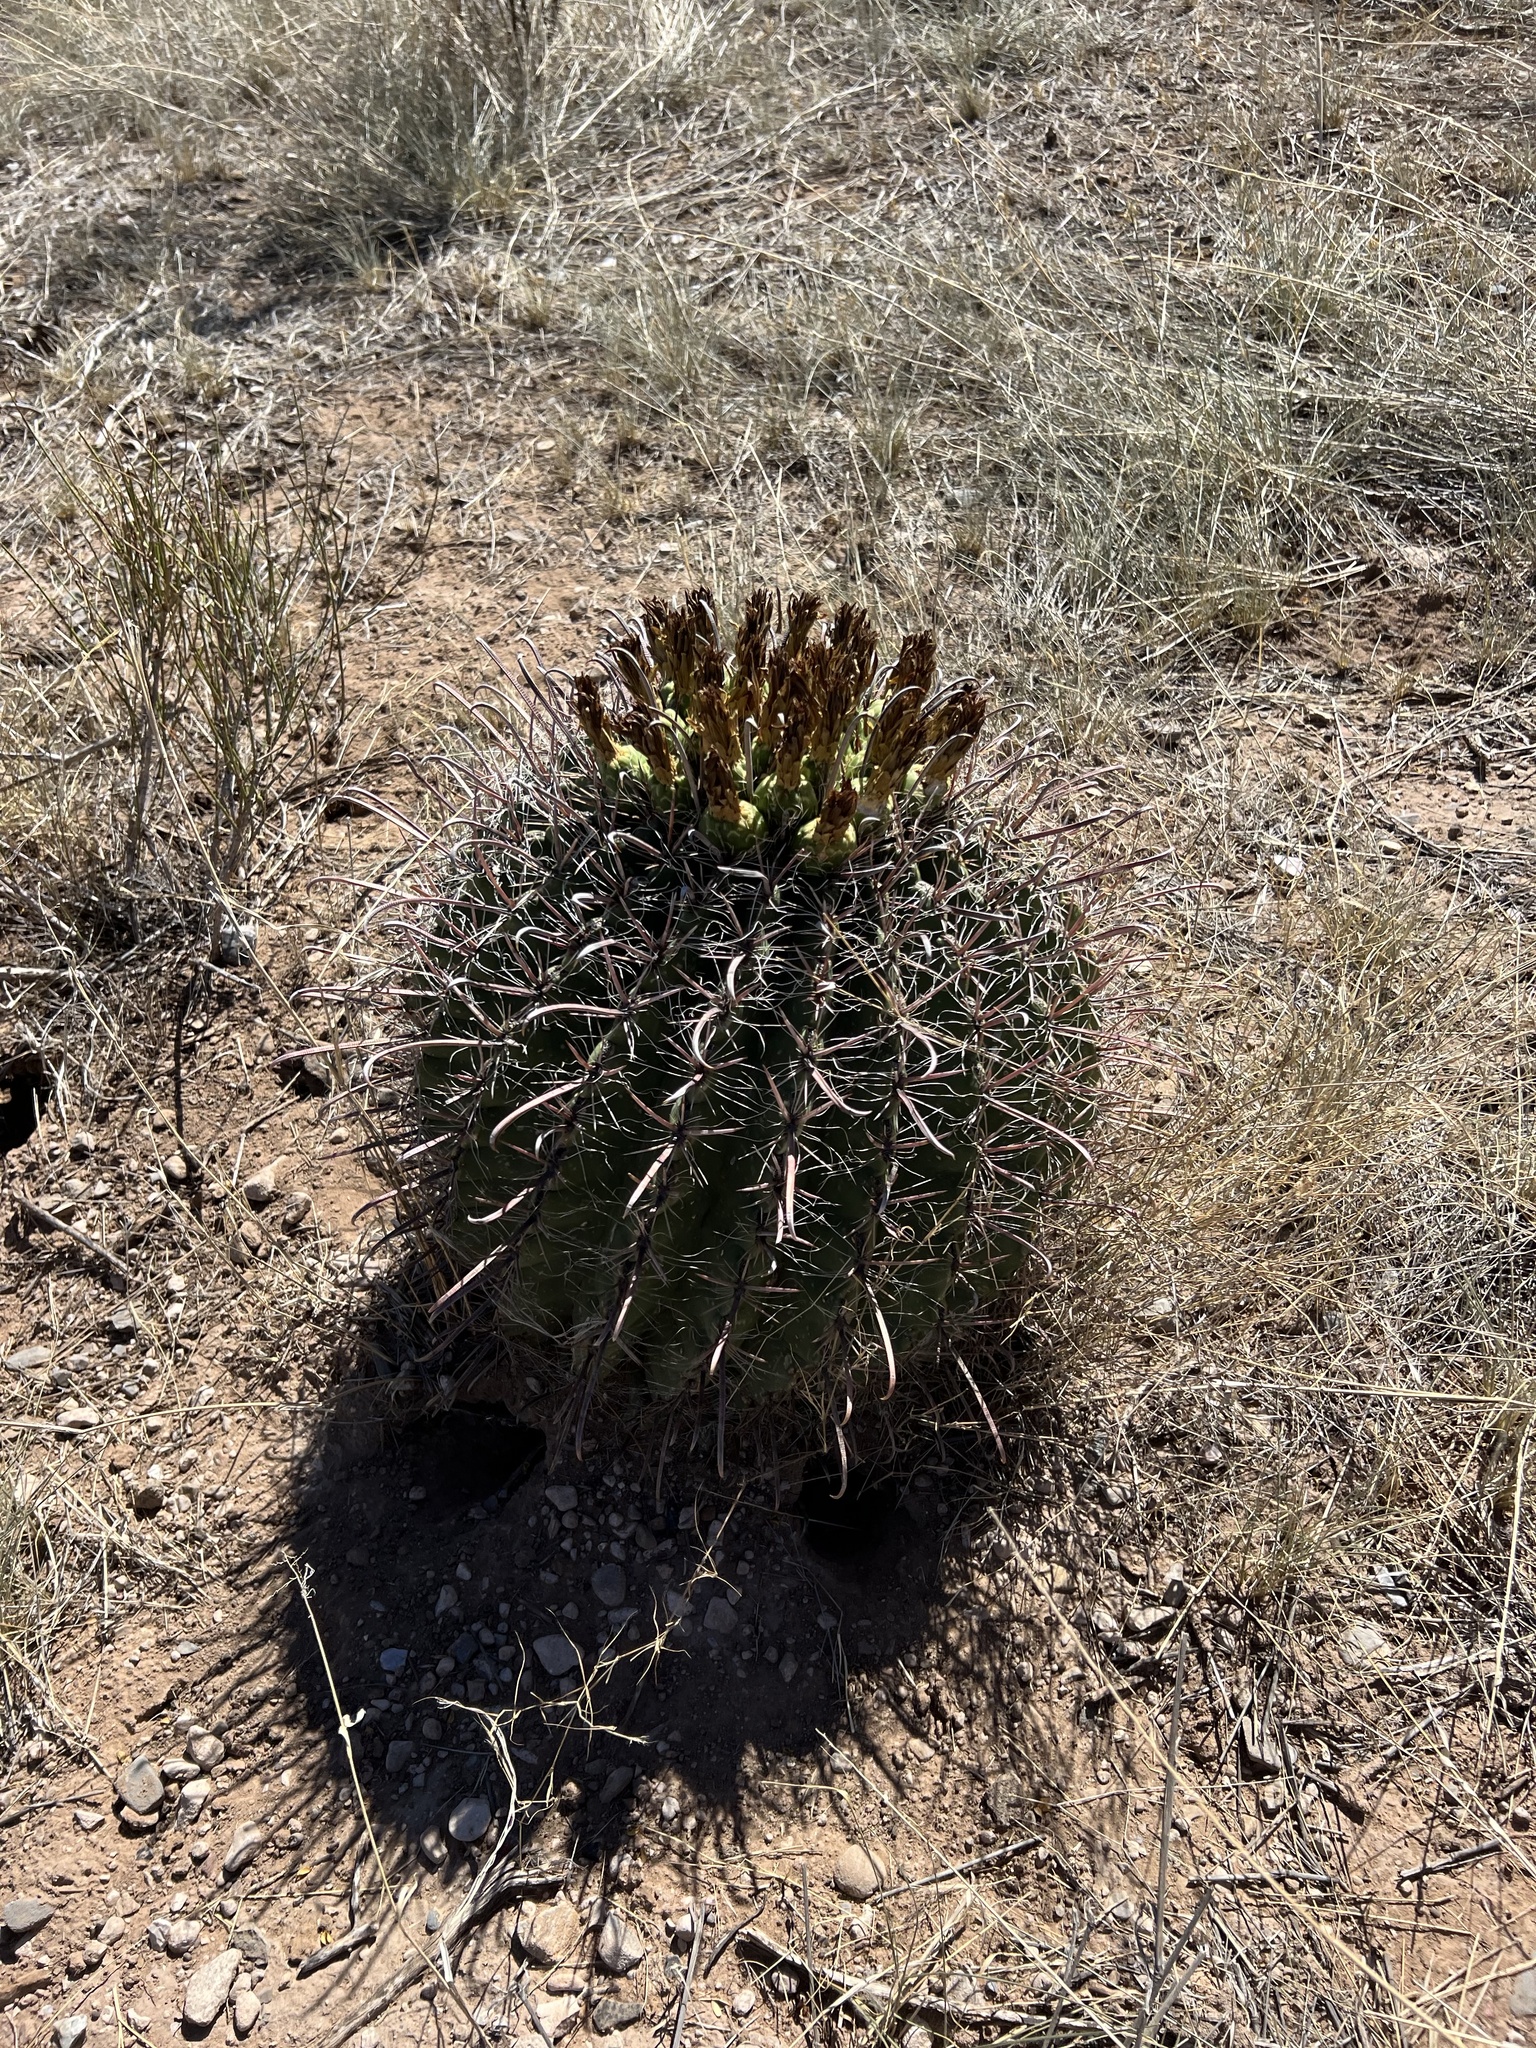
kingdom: Plantae
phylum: Tracheophyta
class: Magnoliopsida
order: Caryophyllales
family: Cactaceae
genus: Ferocactus
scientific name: Ferocactus wislizeni
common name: Candy barrel cactus
